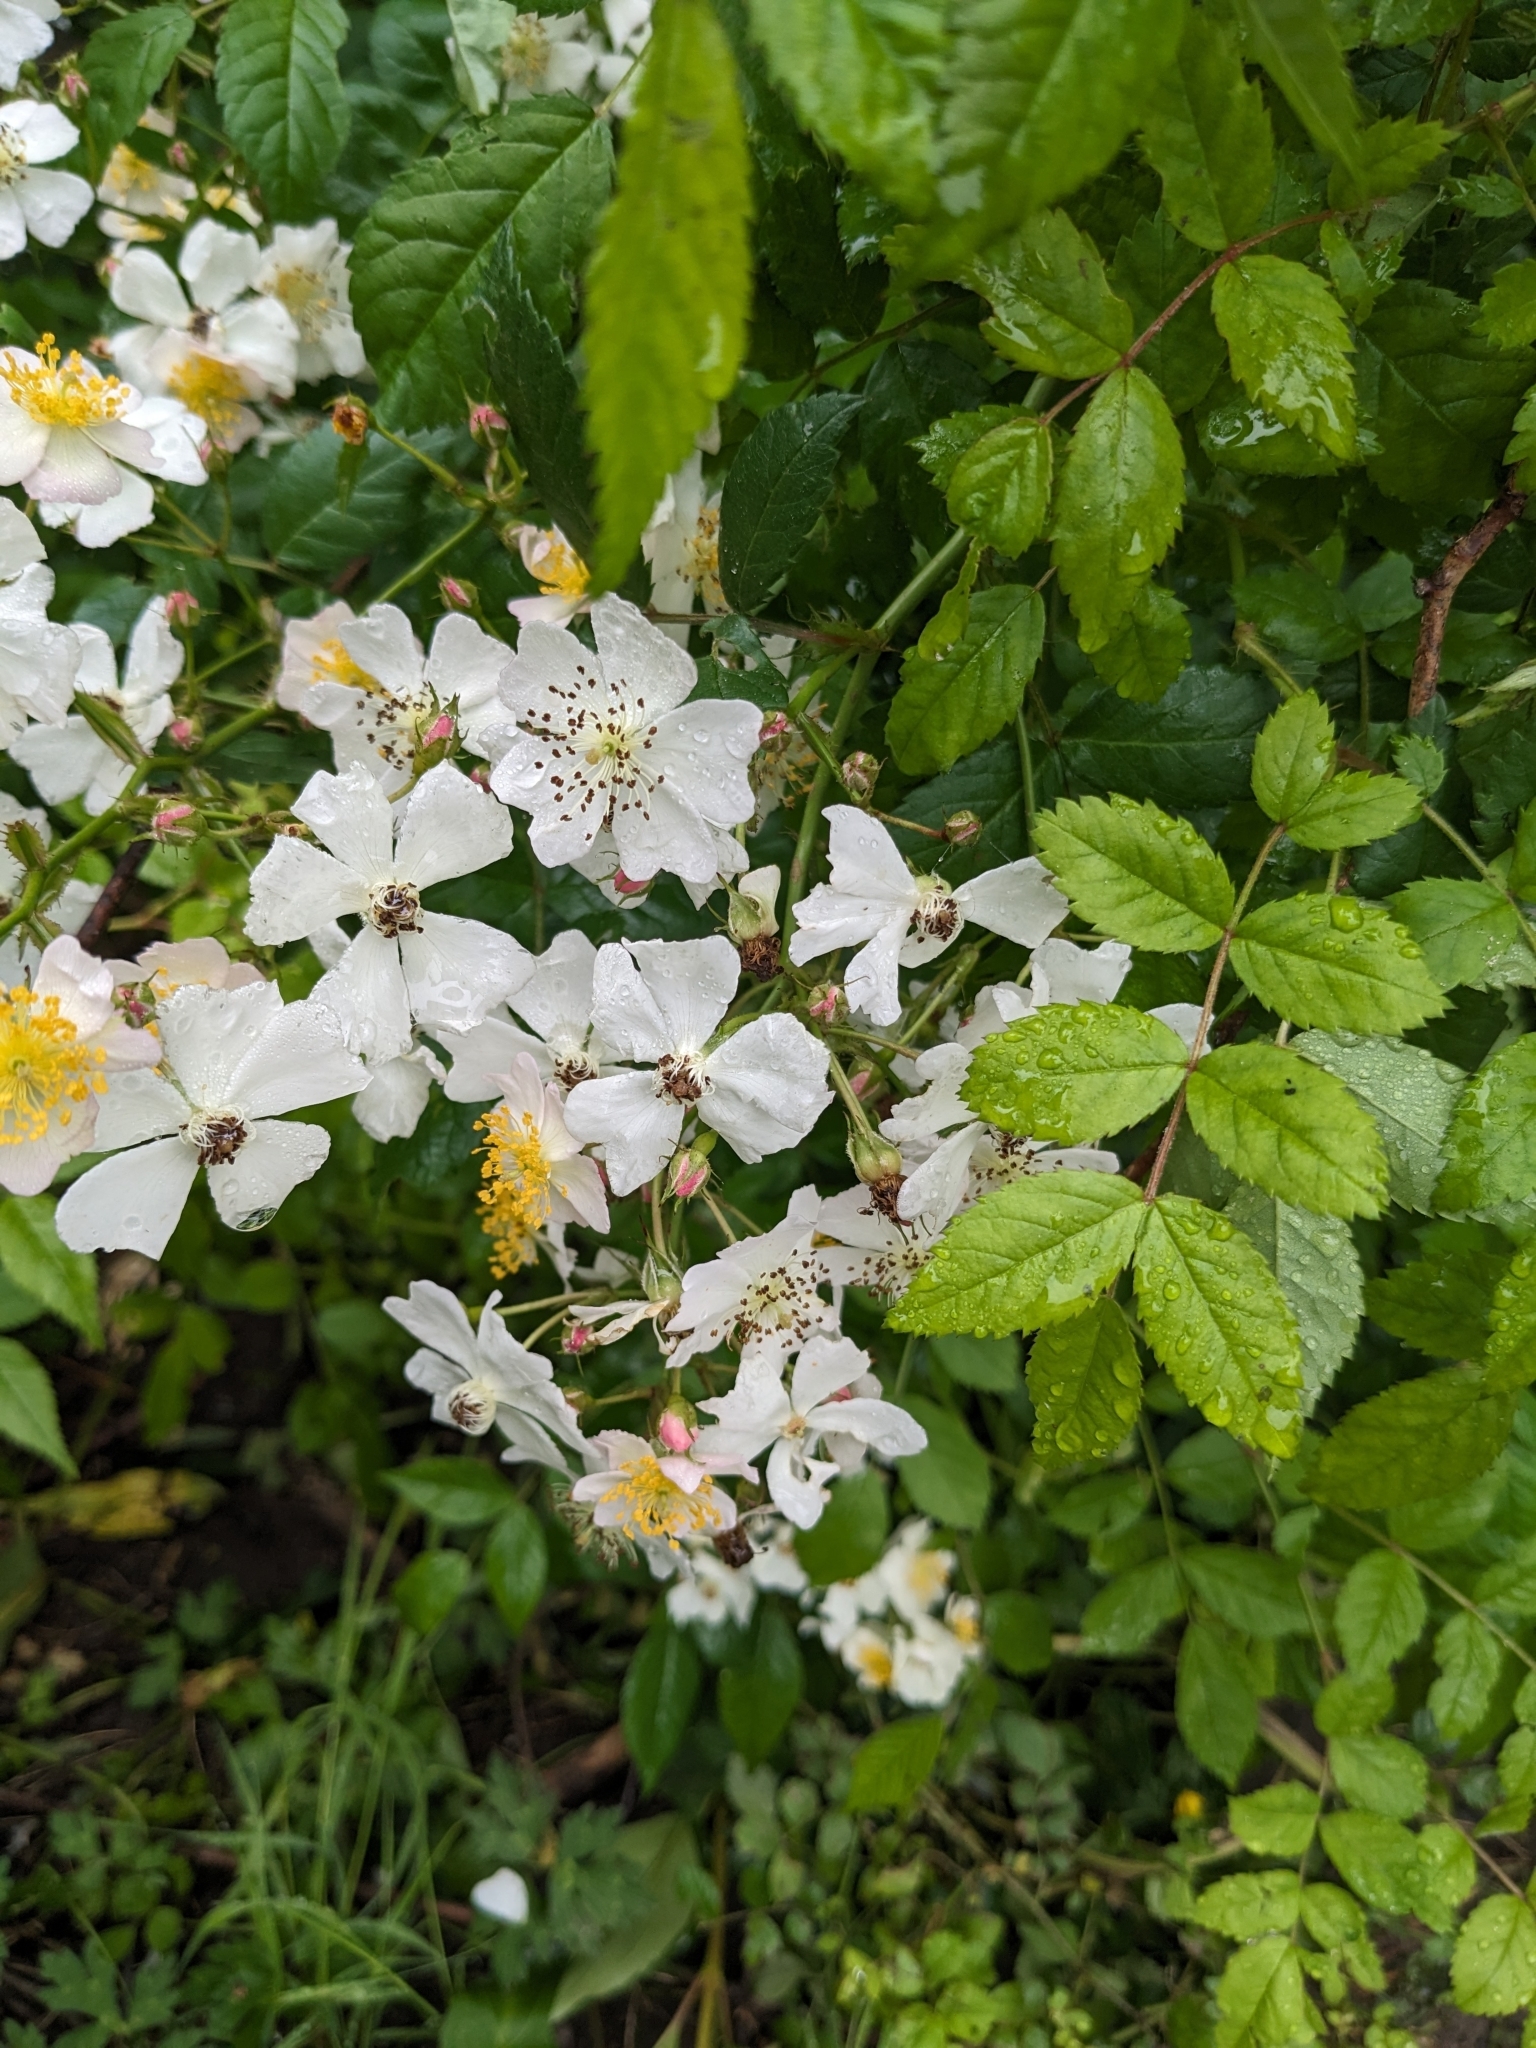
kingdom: Plantae
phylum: Tracheophyta
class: Magnoliopsida
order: Rosales
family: Rosaceae
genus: Rosa
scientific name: Rosa multiflora
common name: Multiflora rose
